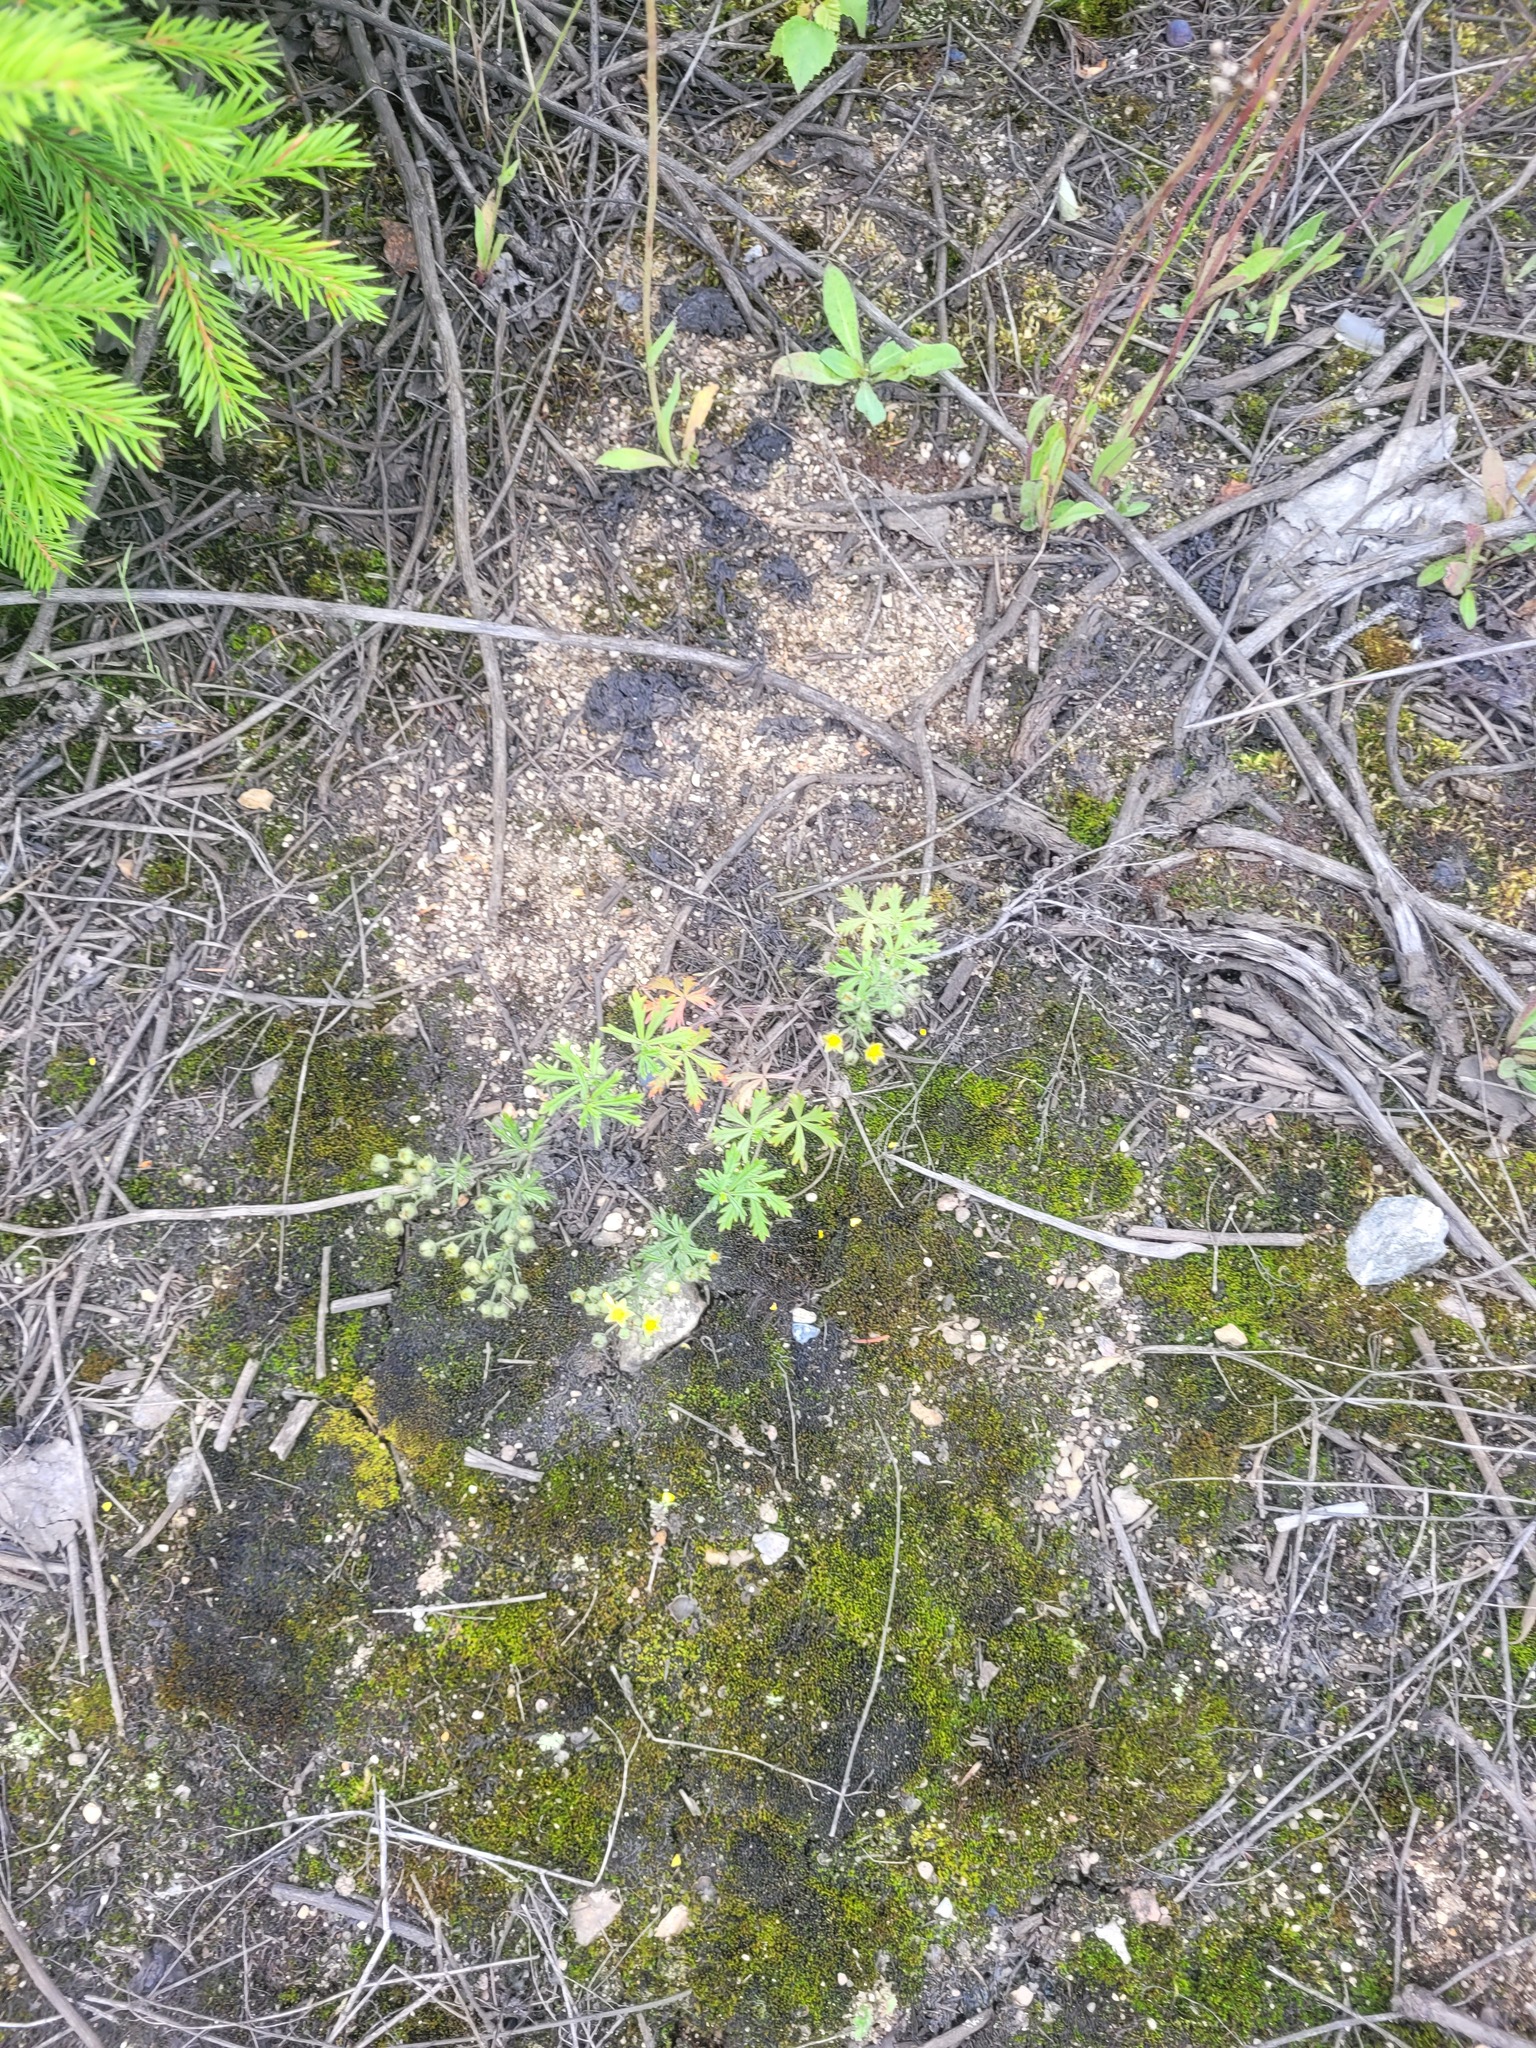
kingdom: Plantae
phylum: Tracheophyta
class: Magnoliopsida
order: Rosales
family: Rosaceae
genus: Potentilla
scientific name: Potentilla argentea
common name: Hoary cinquefoil
